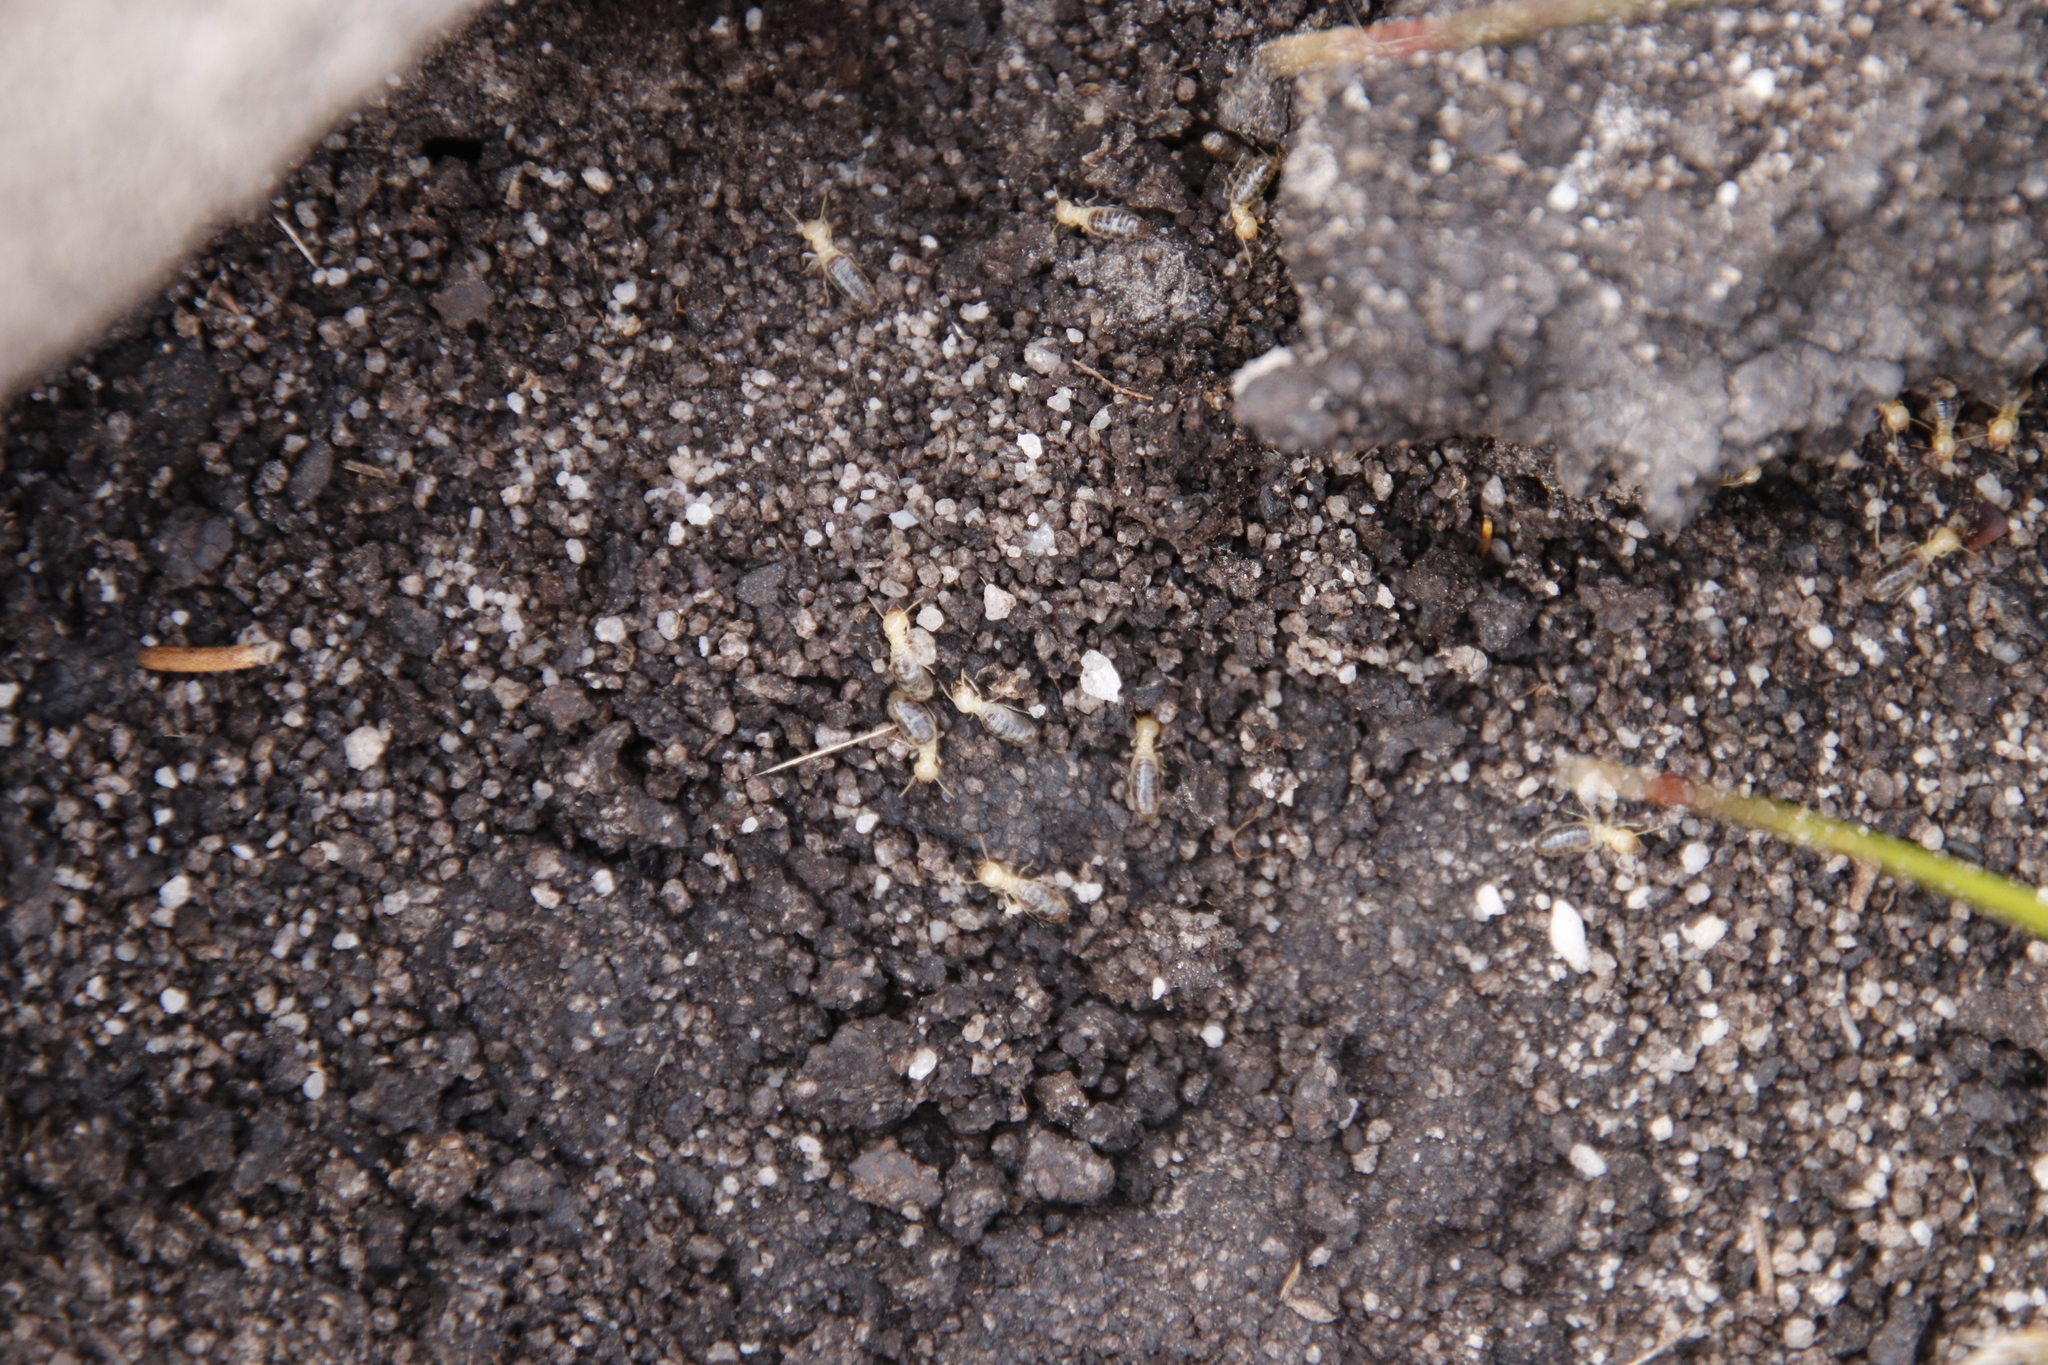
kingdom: Animalia
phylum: Arthropoda
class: Insecta
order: Blattodea
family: Termitidae
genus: Amitermes
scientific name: Amitermes hastatus
